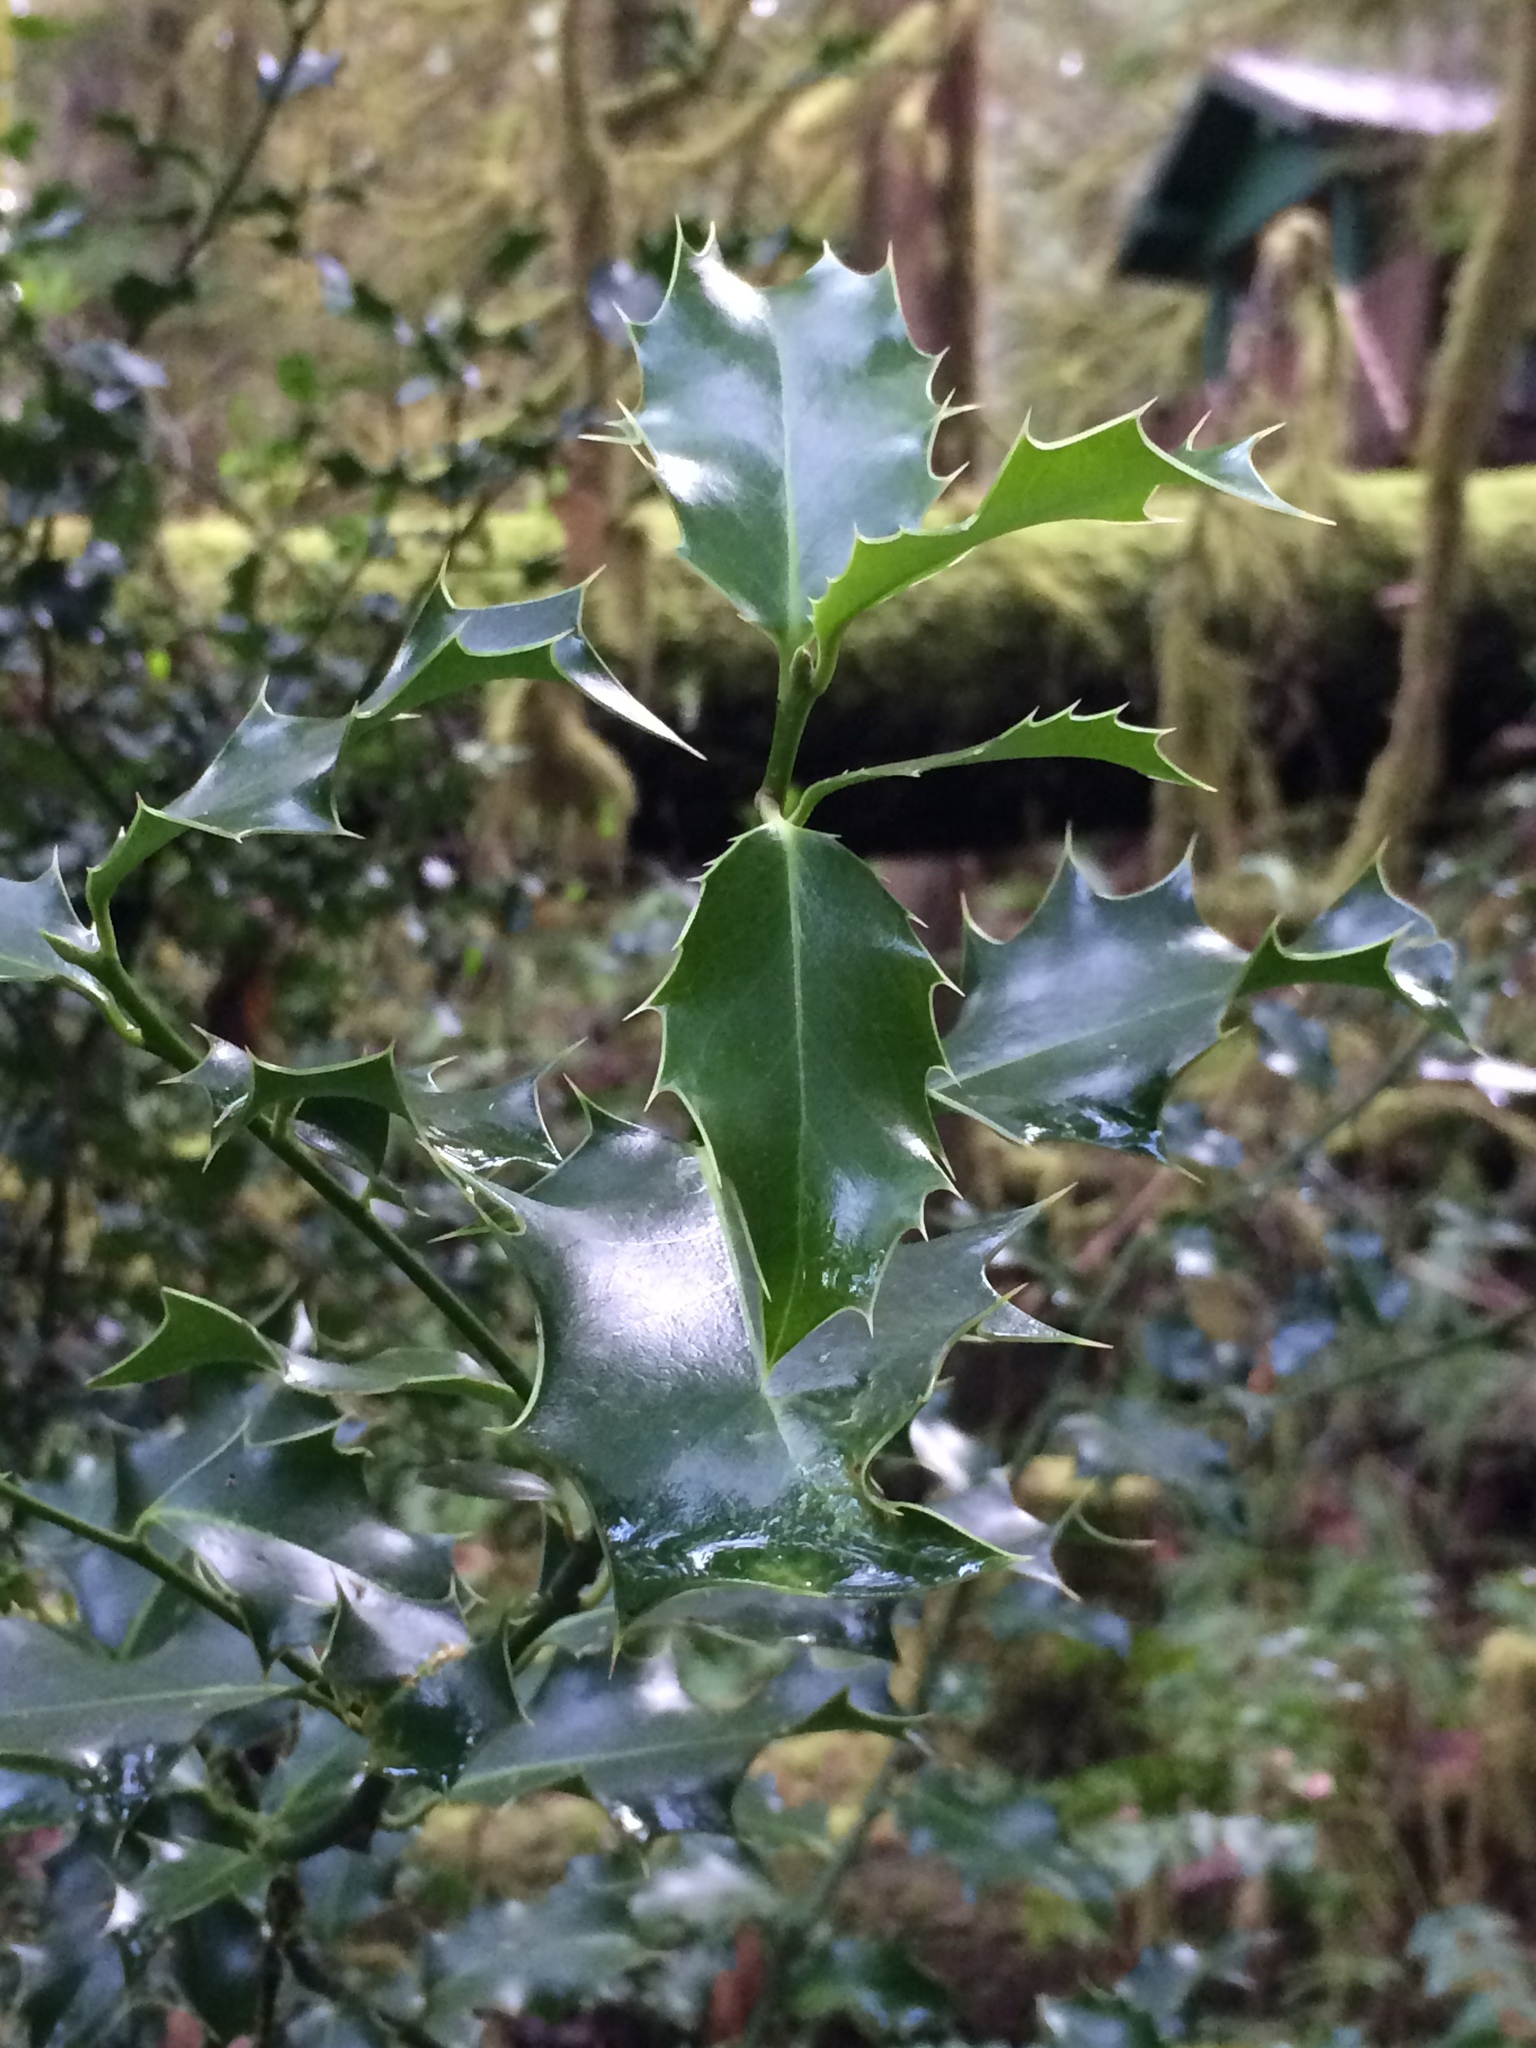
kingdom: Plantae
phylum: Tracheophyta
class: Magnoliopsida
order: Aquifoliales
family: Aquifoliaceae
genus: Ilex
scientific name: Ilex aquifolium
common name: English holly
